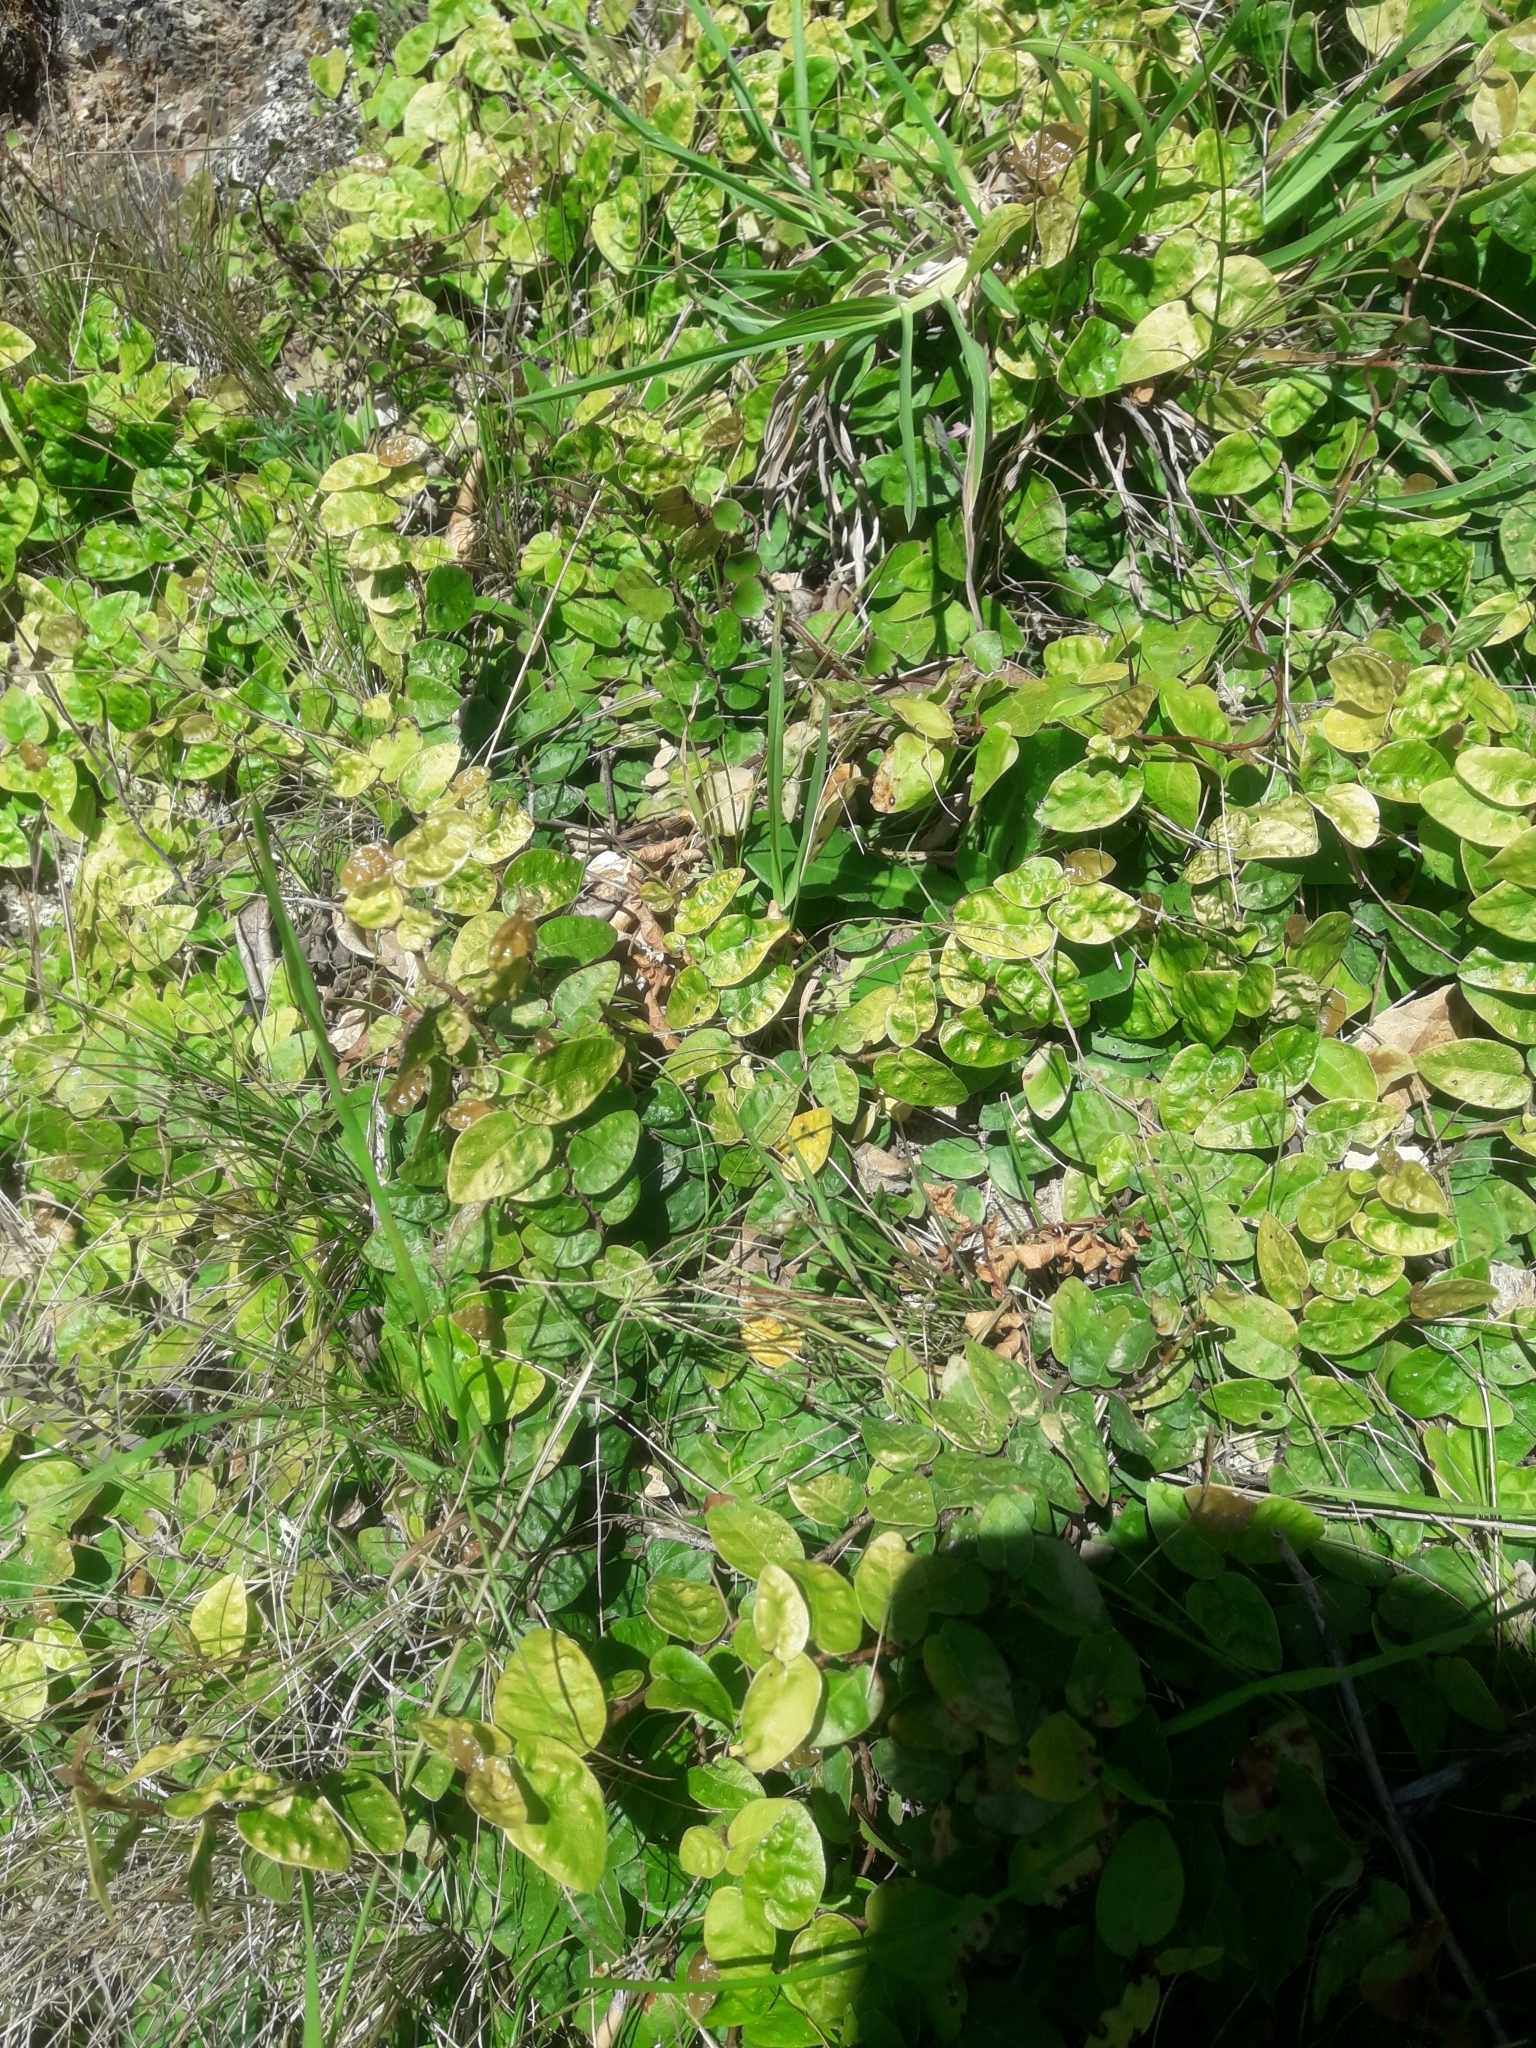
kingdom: Plantae
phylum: Tracheophyta
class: Magnoliopsida
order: Rosales
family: Moraceae
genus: Ficus
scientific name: Ficus pumila
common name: Climbingfig
